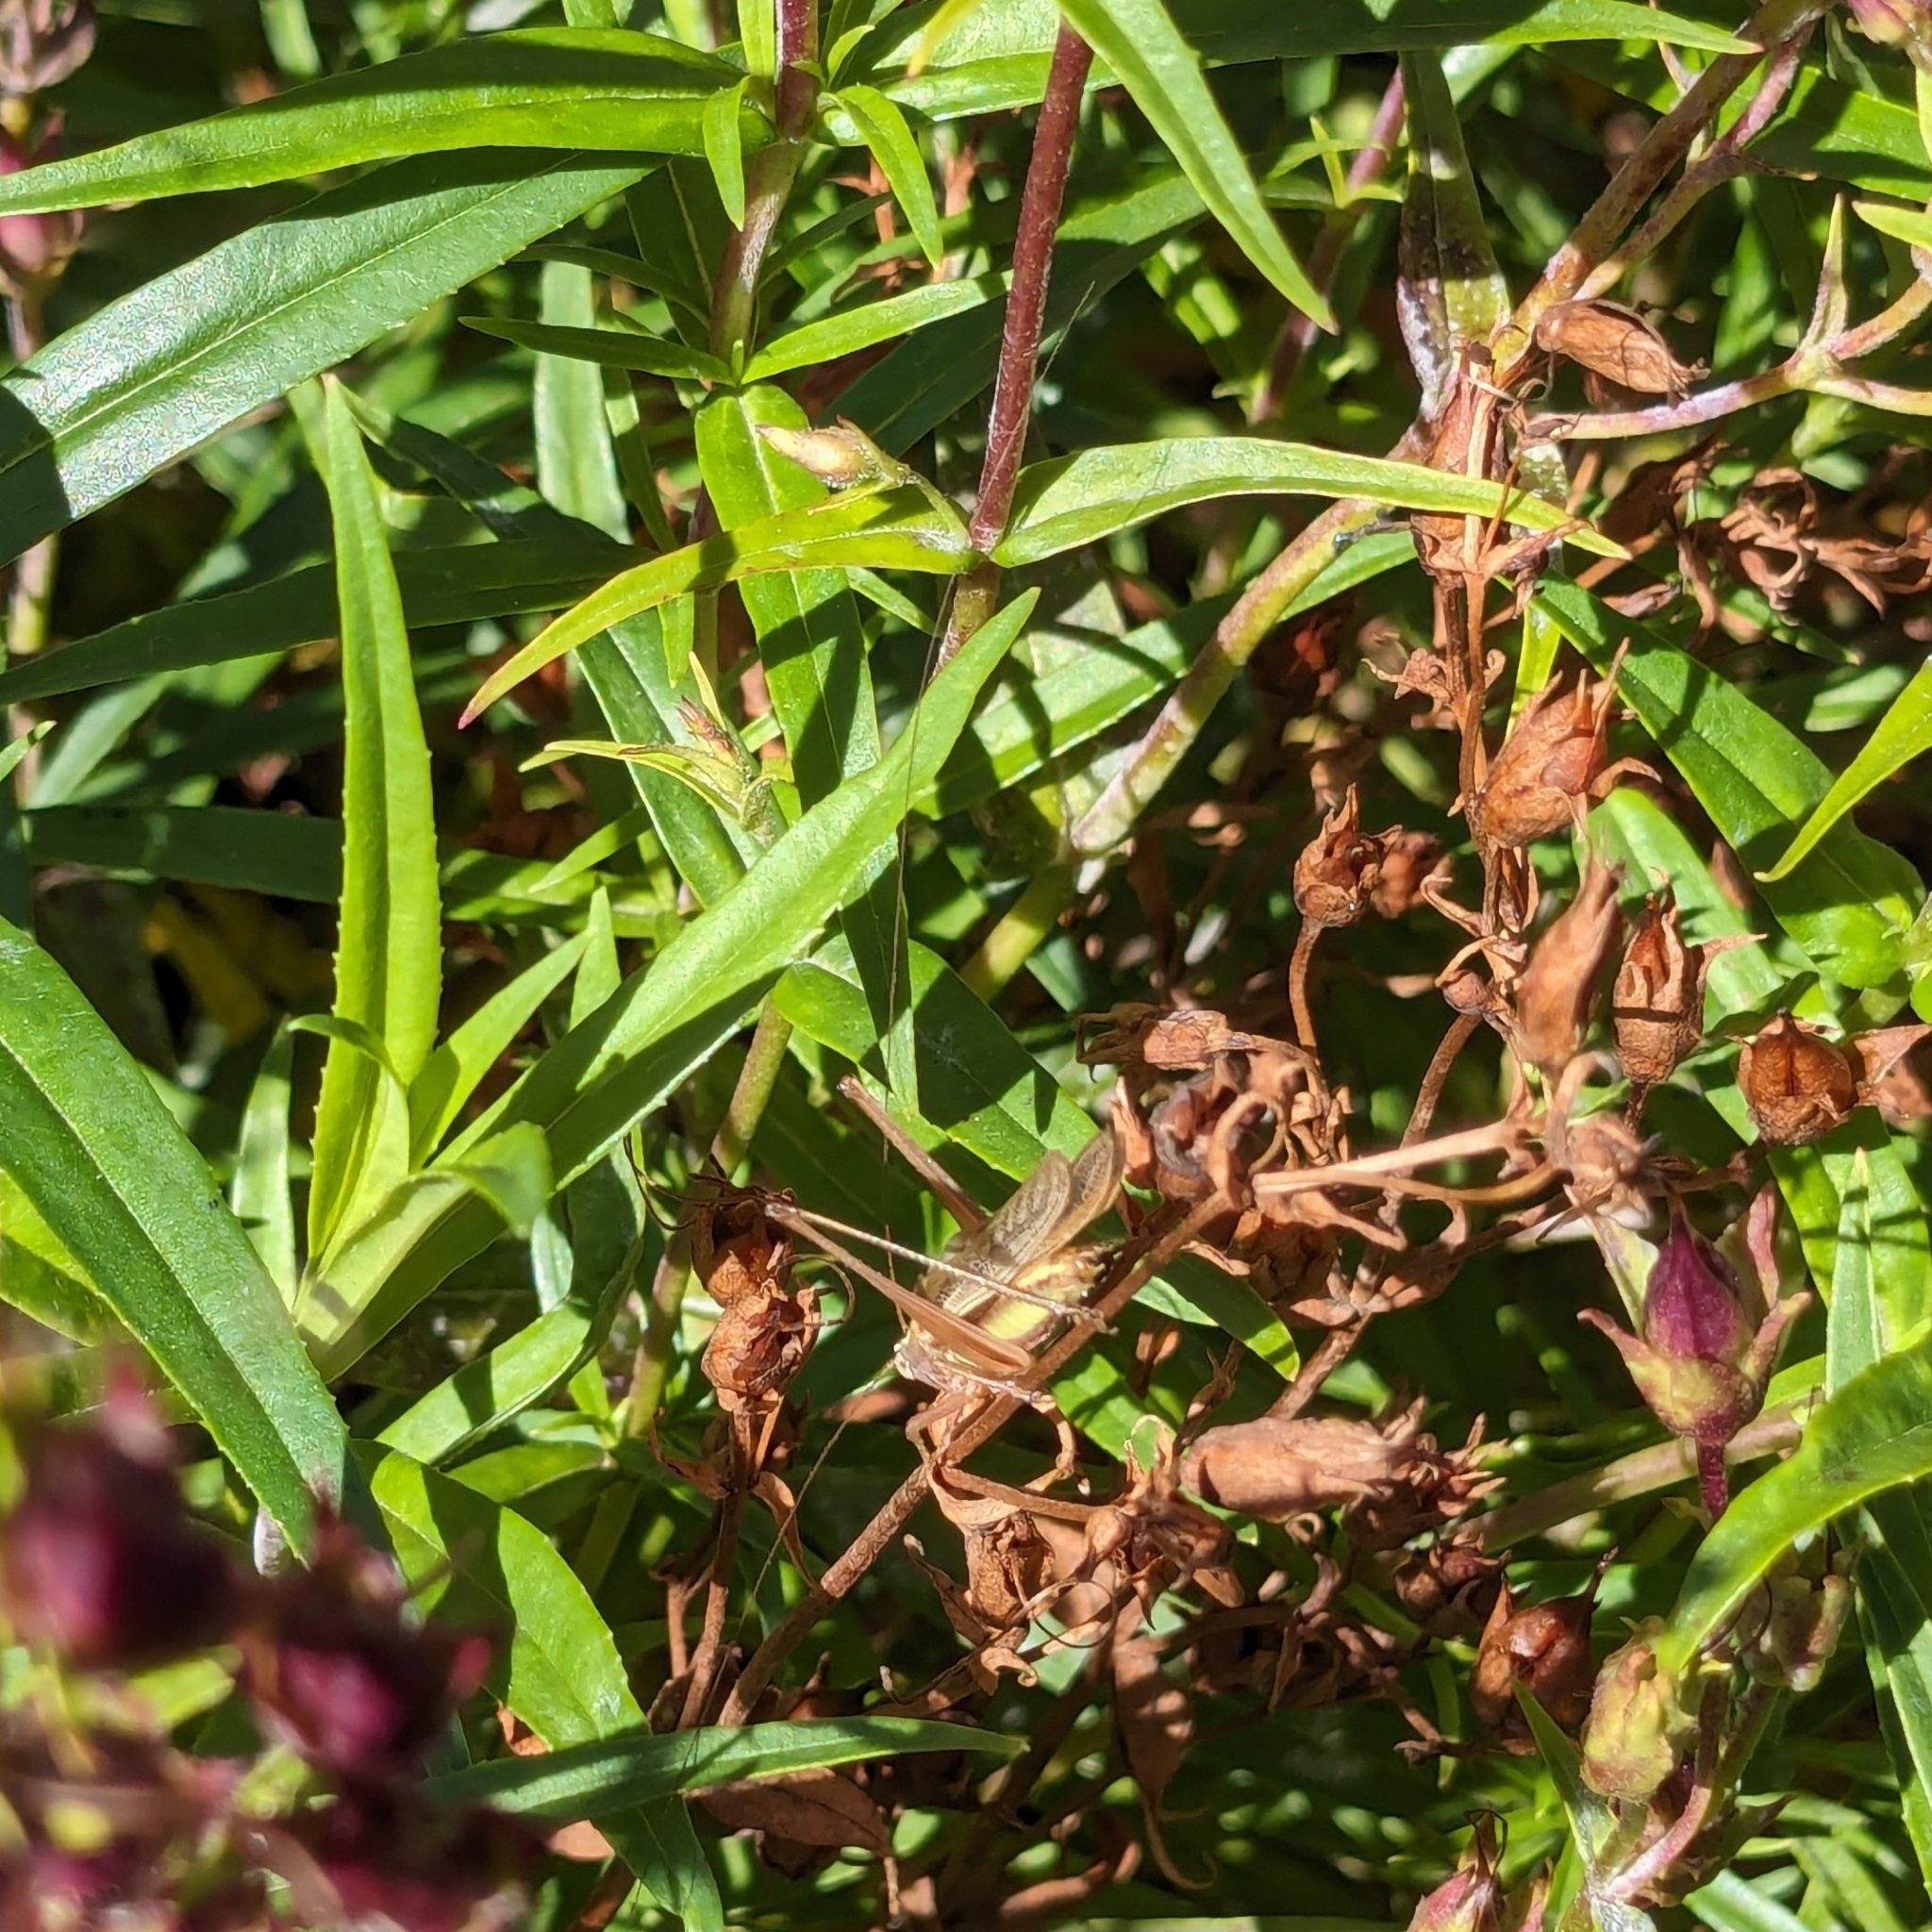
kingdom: Animalia
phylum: Arthropoda
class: Insecta
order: Orthoptera
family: Tettigoniidae
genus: Conocephalus
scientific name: Conocephalus albescens
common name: Whitish meadow katydid
